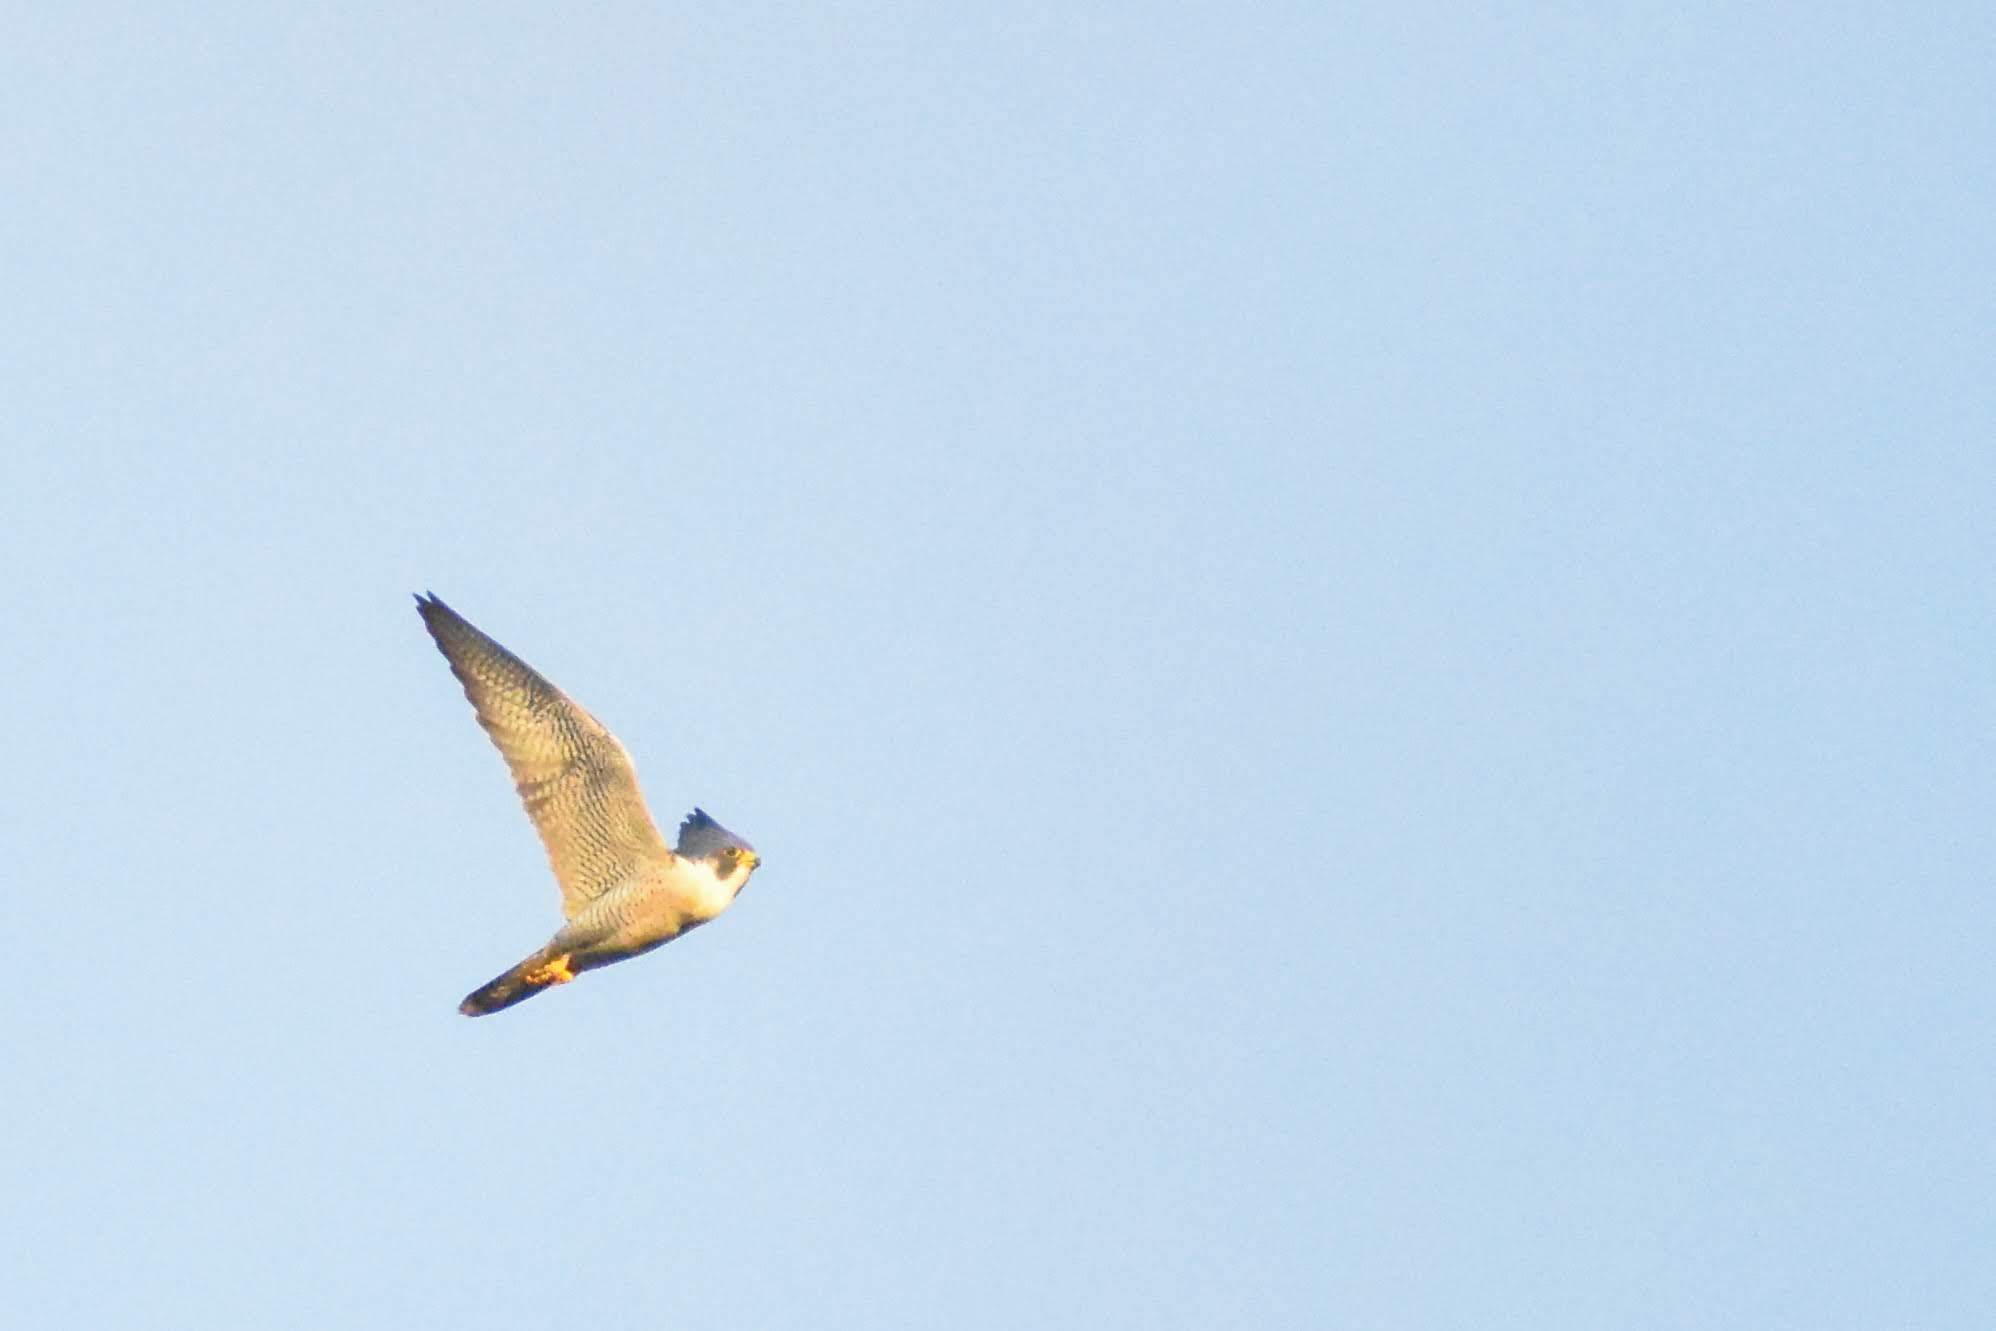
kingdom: Animalia
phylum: Chordata
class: Aves
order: Falconiformes
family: Falconidae
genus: Falco
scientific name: Falco peregrinus
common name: Peregrine falcon
